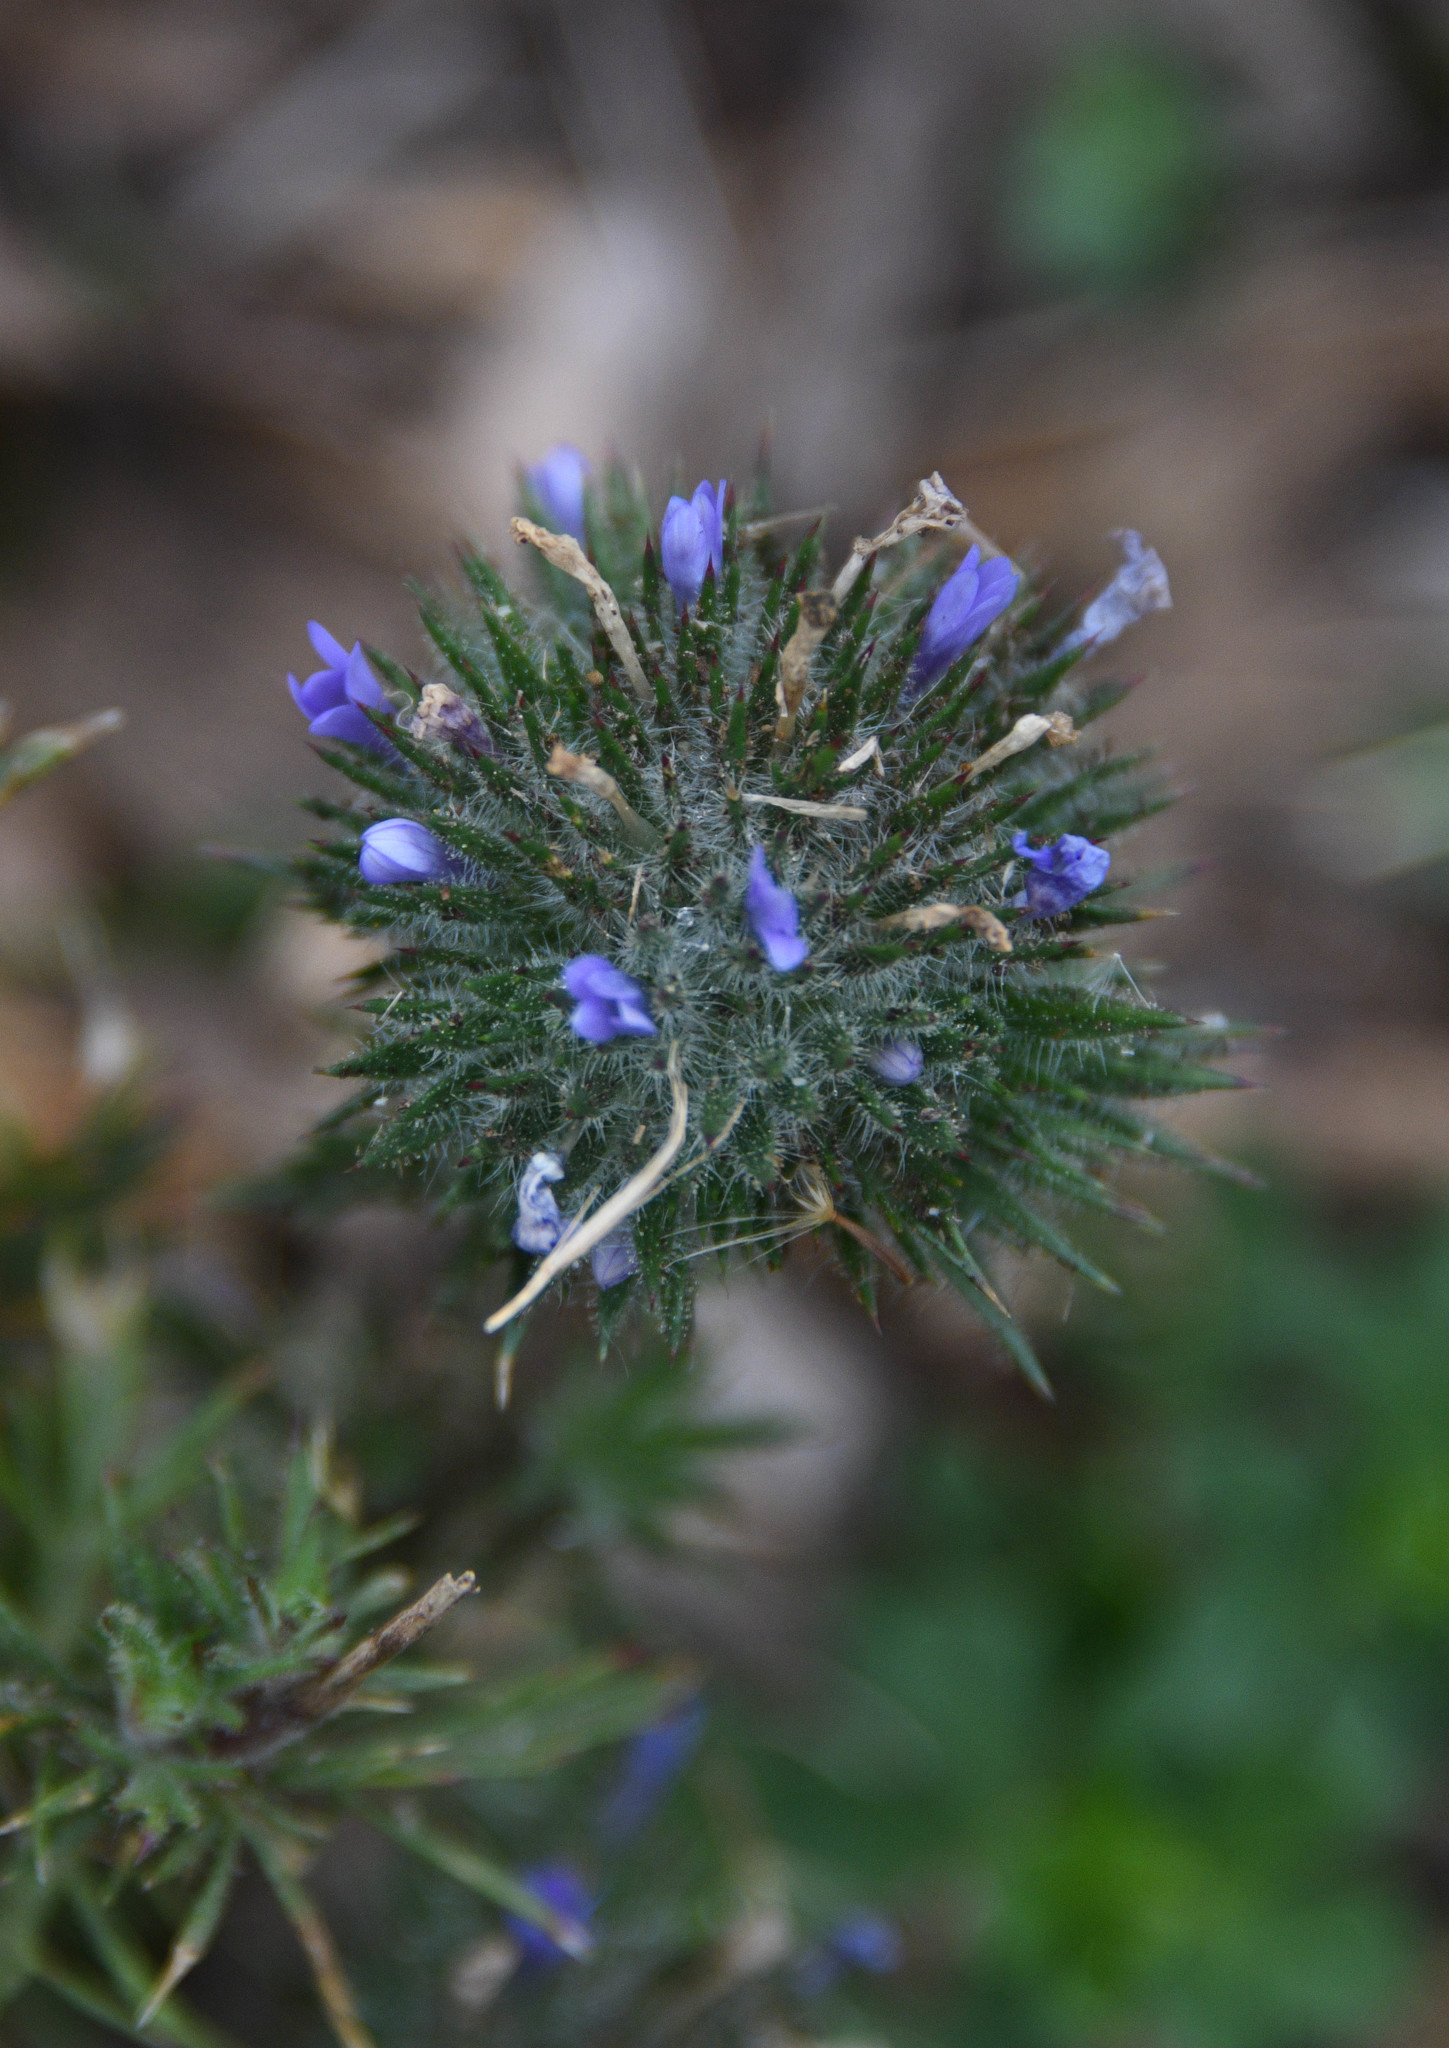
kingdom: Plantae
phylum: Tracheophyta
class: Magnoliopsida
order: Ericales
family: Polemoniaceae
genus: Navarretia
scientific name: Navarretia squarrosa
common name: Skunkweed
